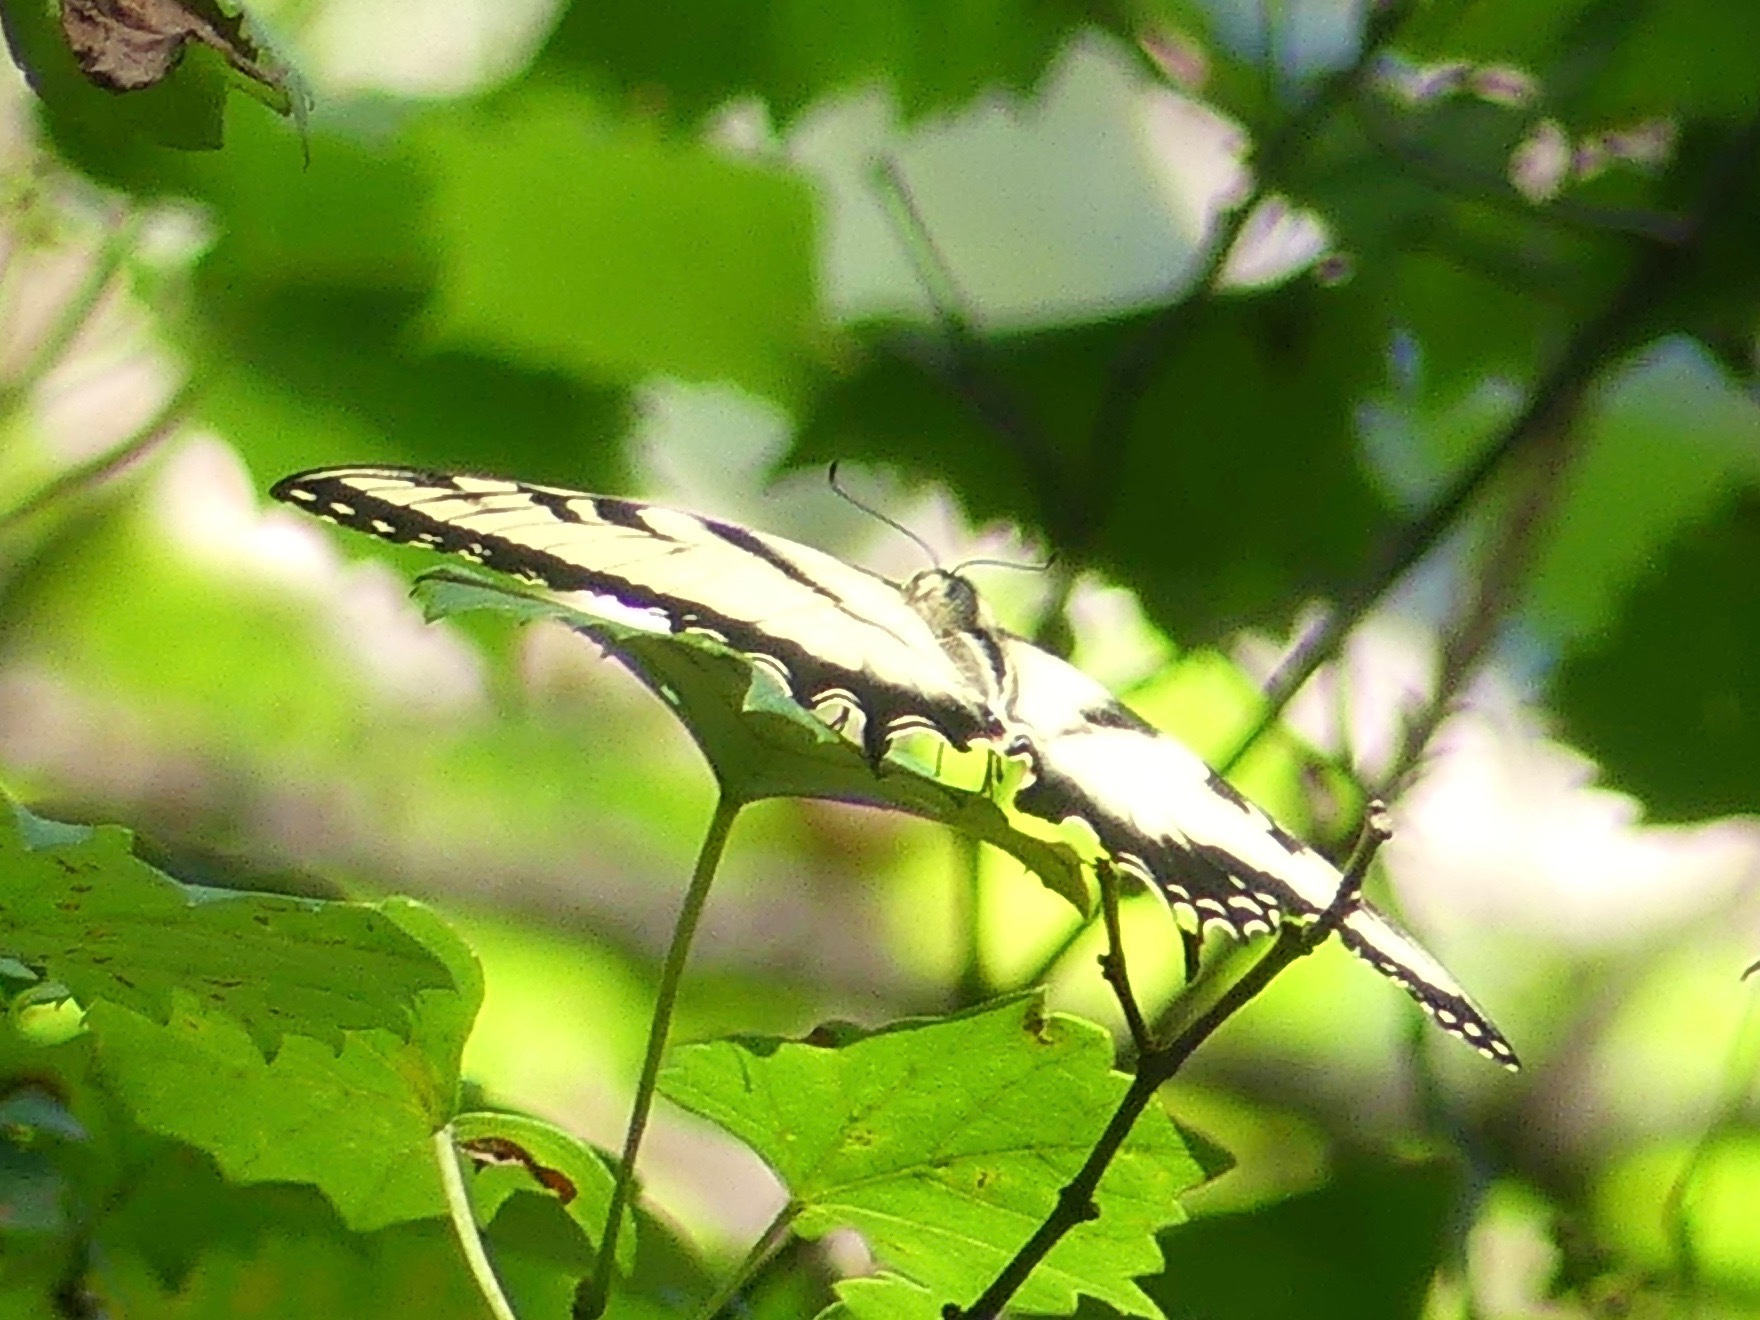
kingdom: Animalia
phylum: Arthropoda
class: Insecta
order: Lepidoptera
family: Papilionidae
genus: Papilio
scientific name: Papilio glaucus
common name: Tiger swallowtail
